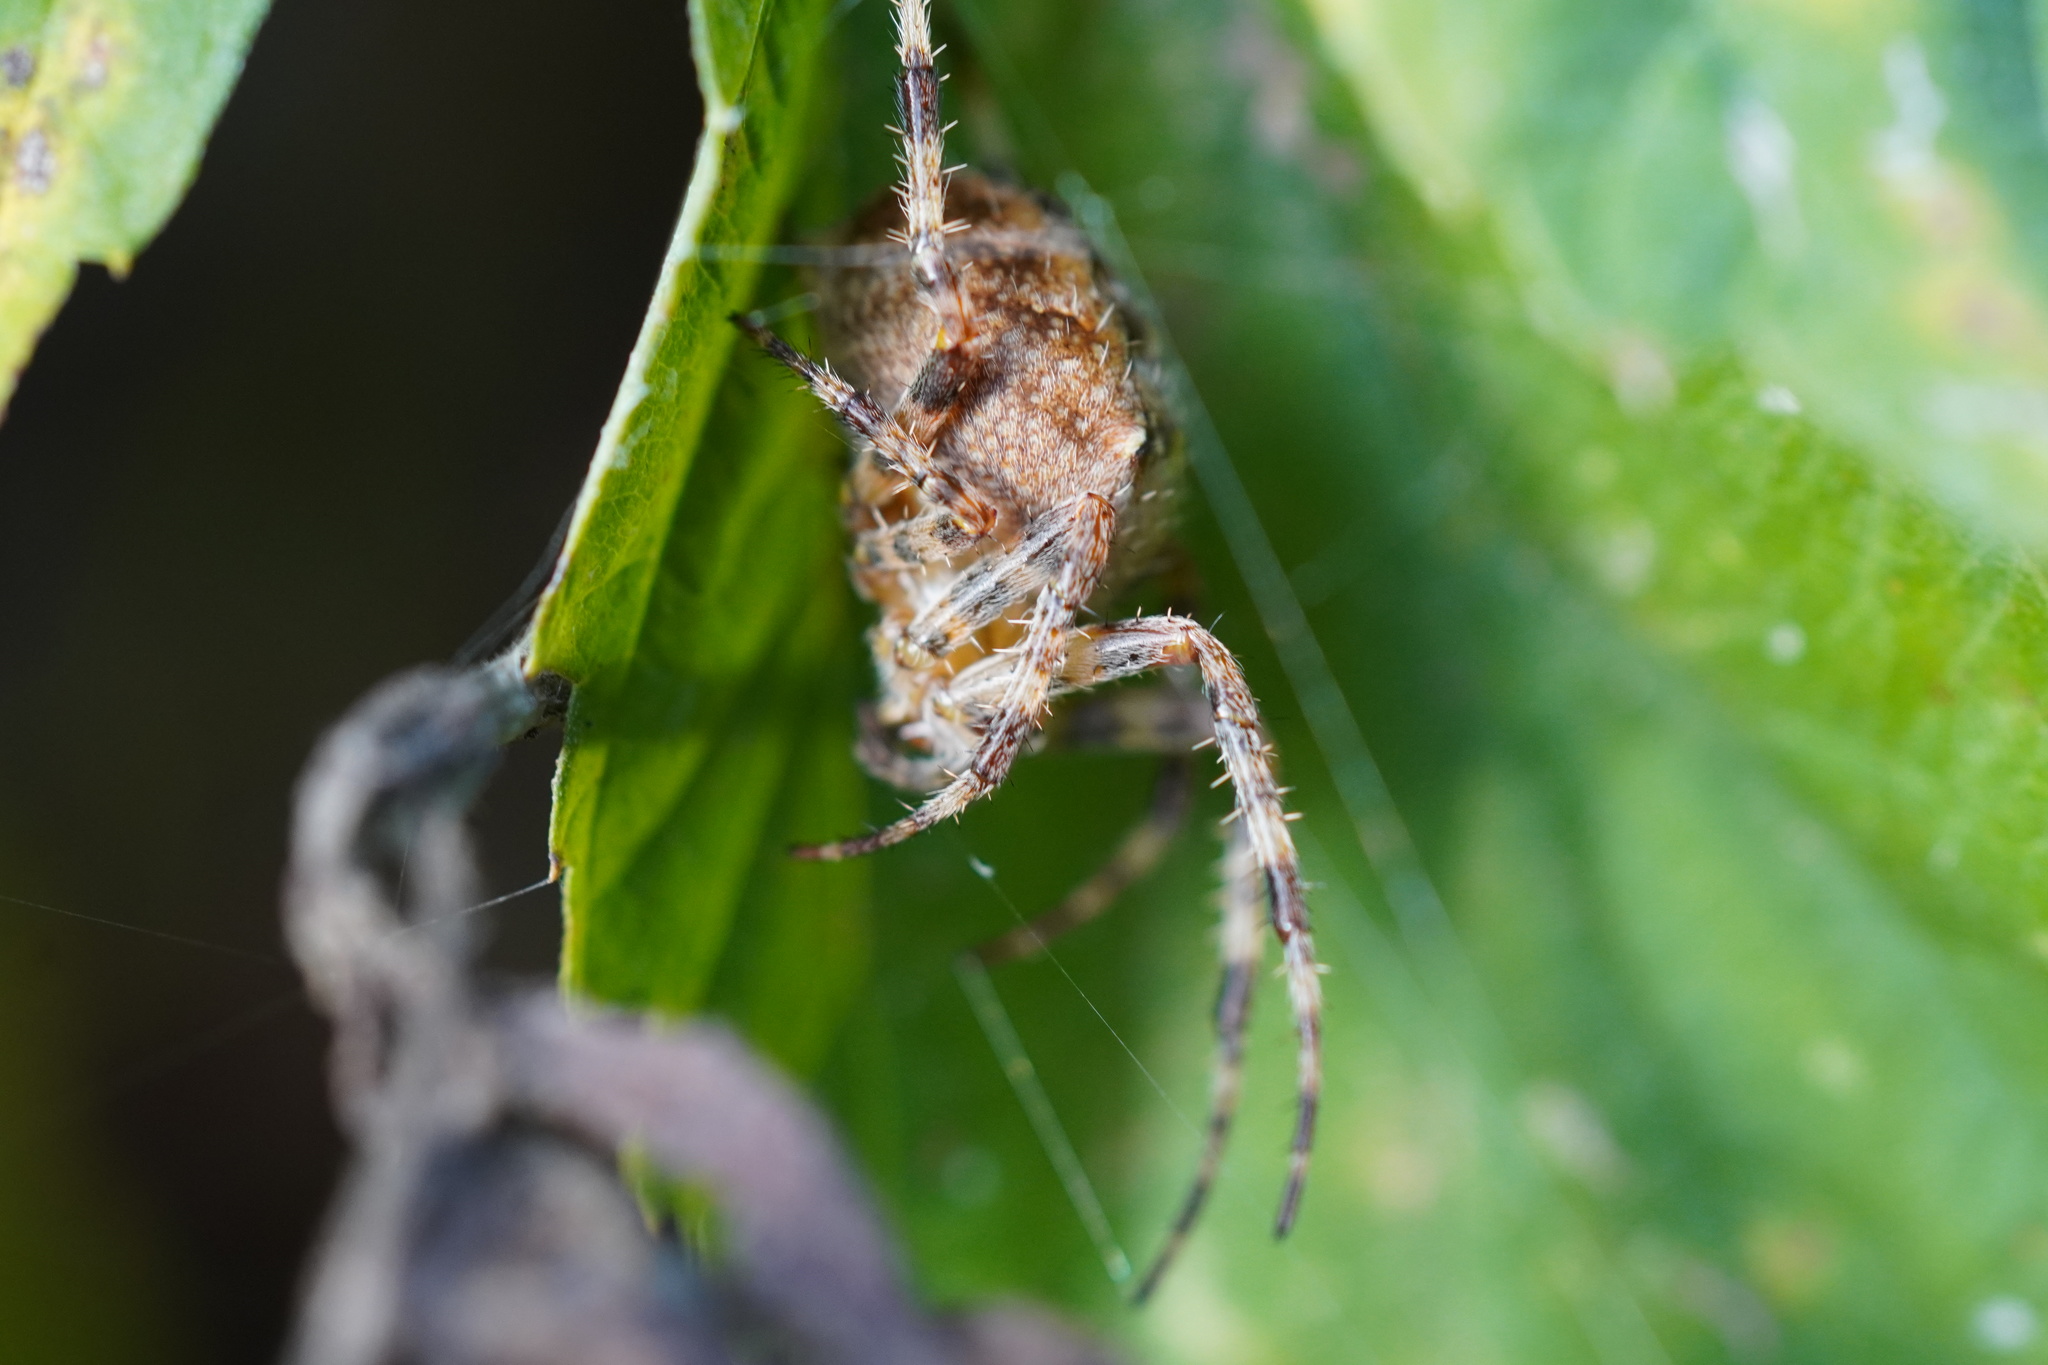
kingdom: Animalia
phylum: Arthropoda
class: Arachnida
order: Araneae
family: Araneidae
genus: Araneus
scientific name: Araneus diadematus
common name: Cross orbweaver
